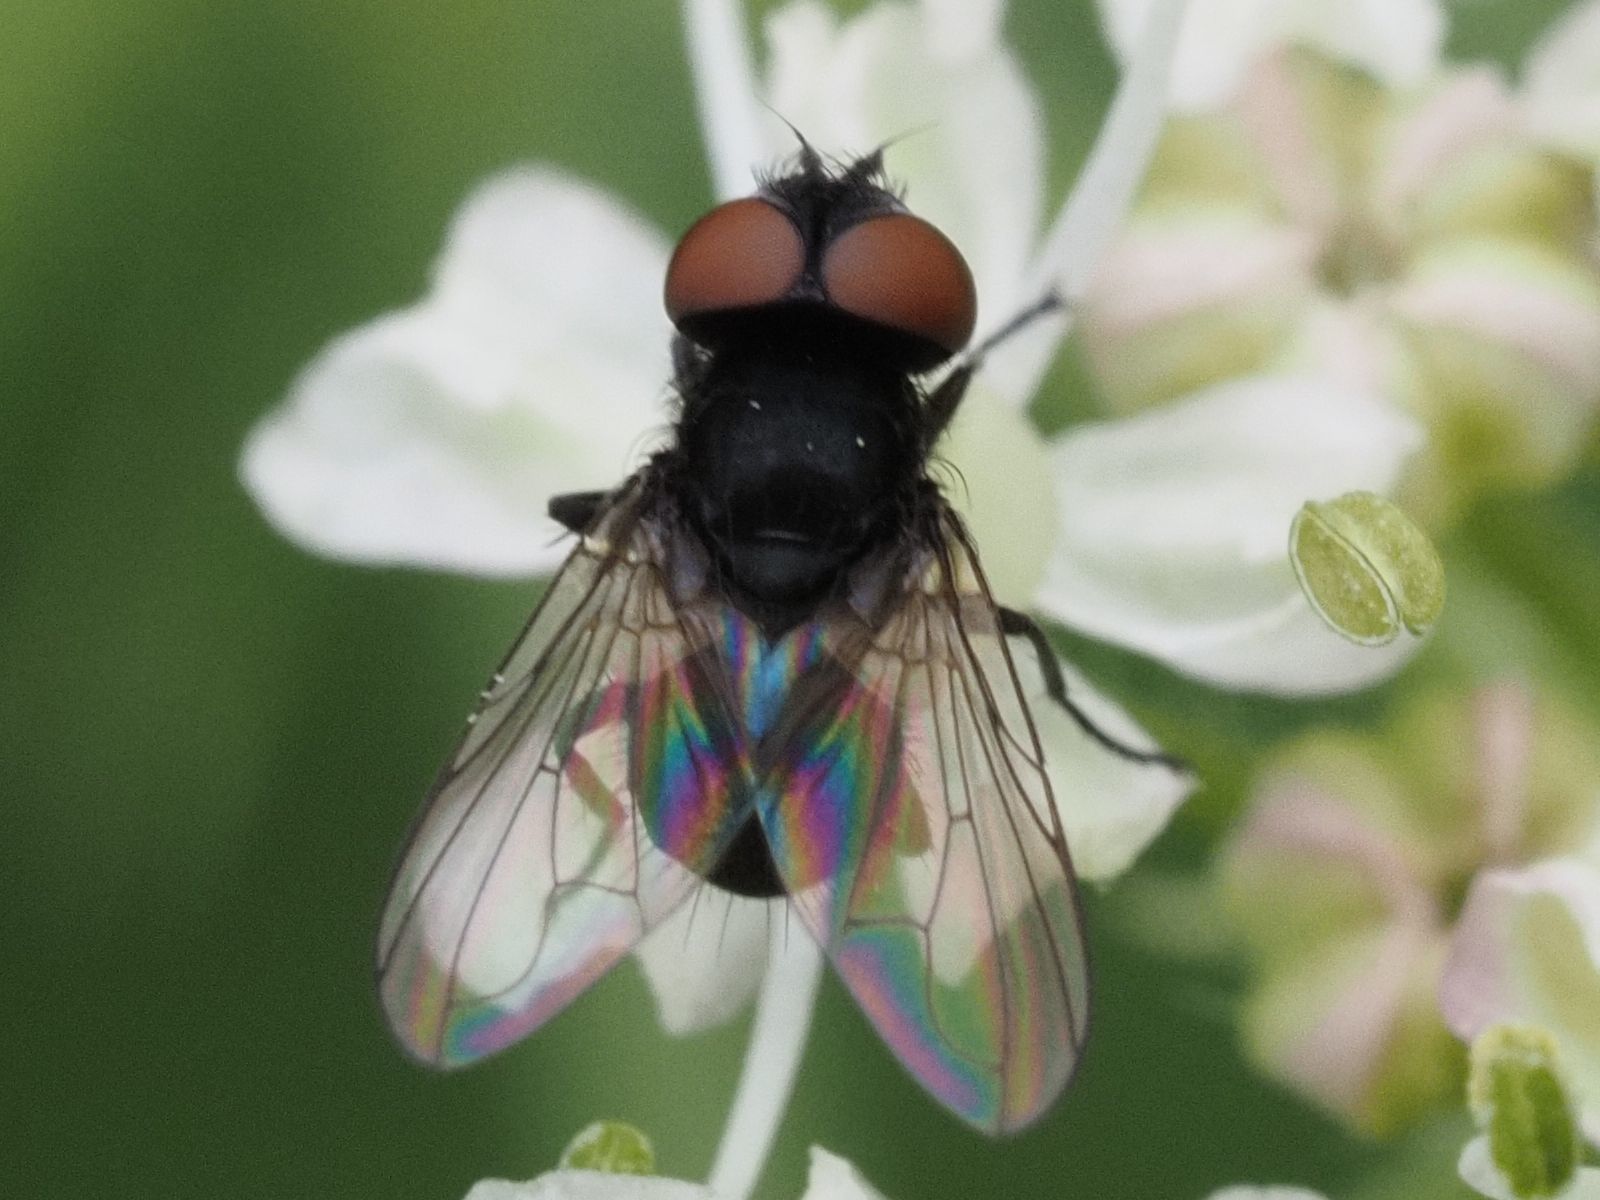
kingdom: Animalia
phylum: Arthropoda
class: Insecta
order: Diptera
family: Tachinidae
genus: Phasia
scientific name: Phasia barbifrons
